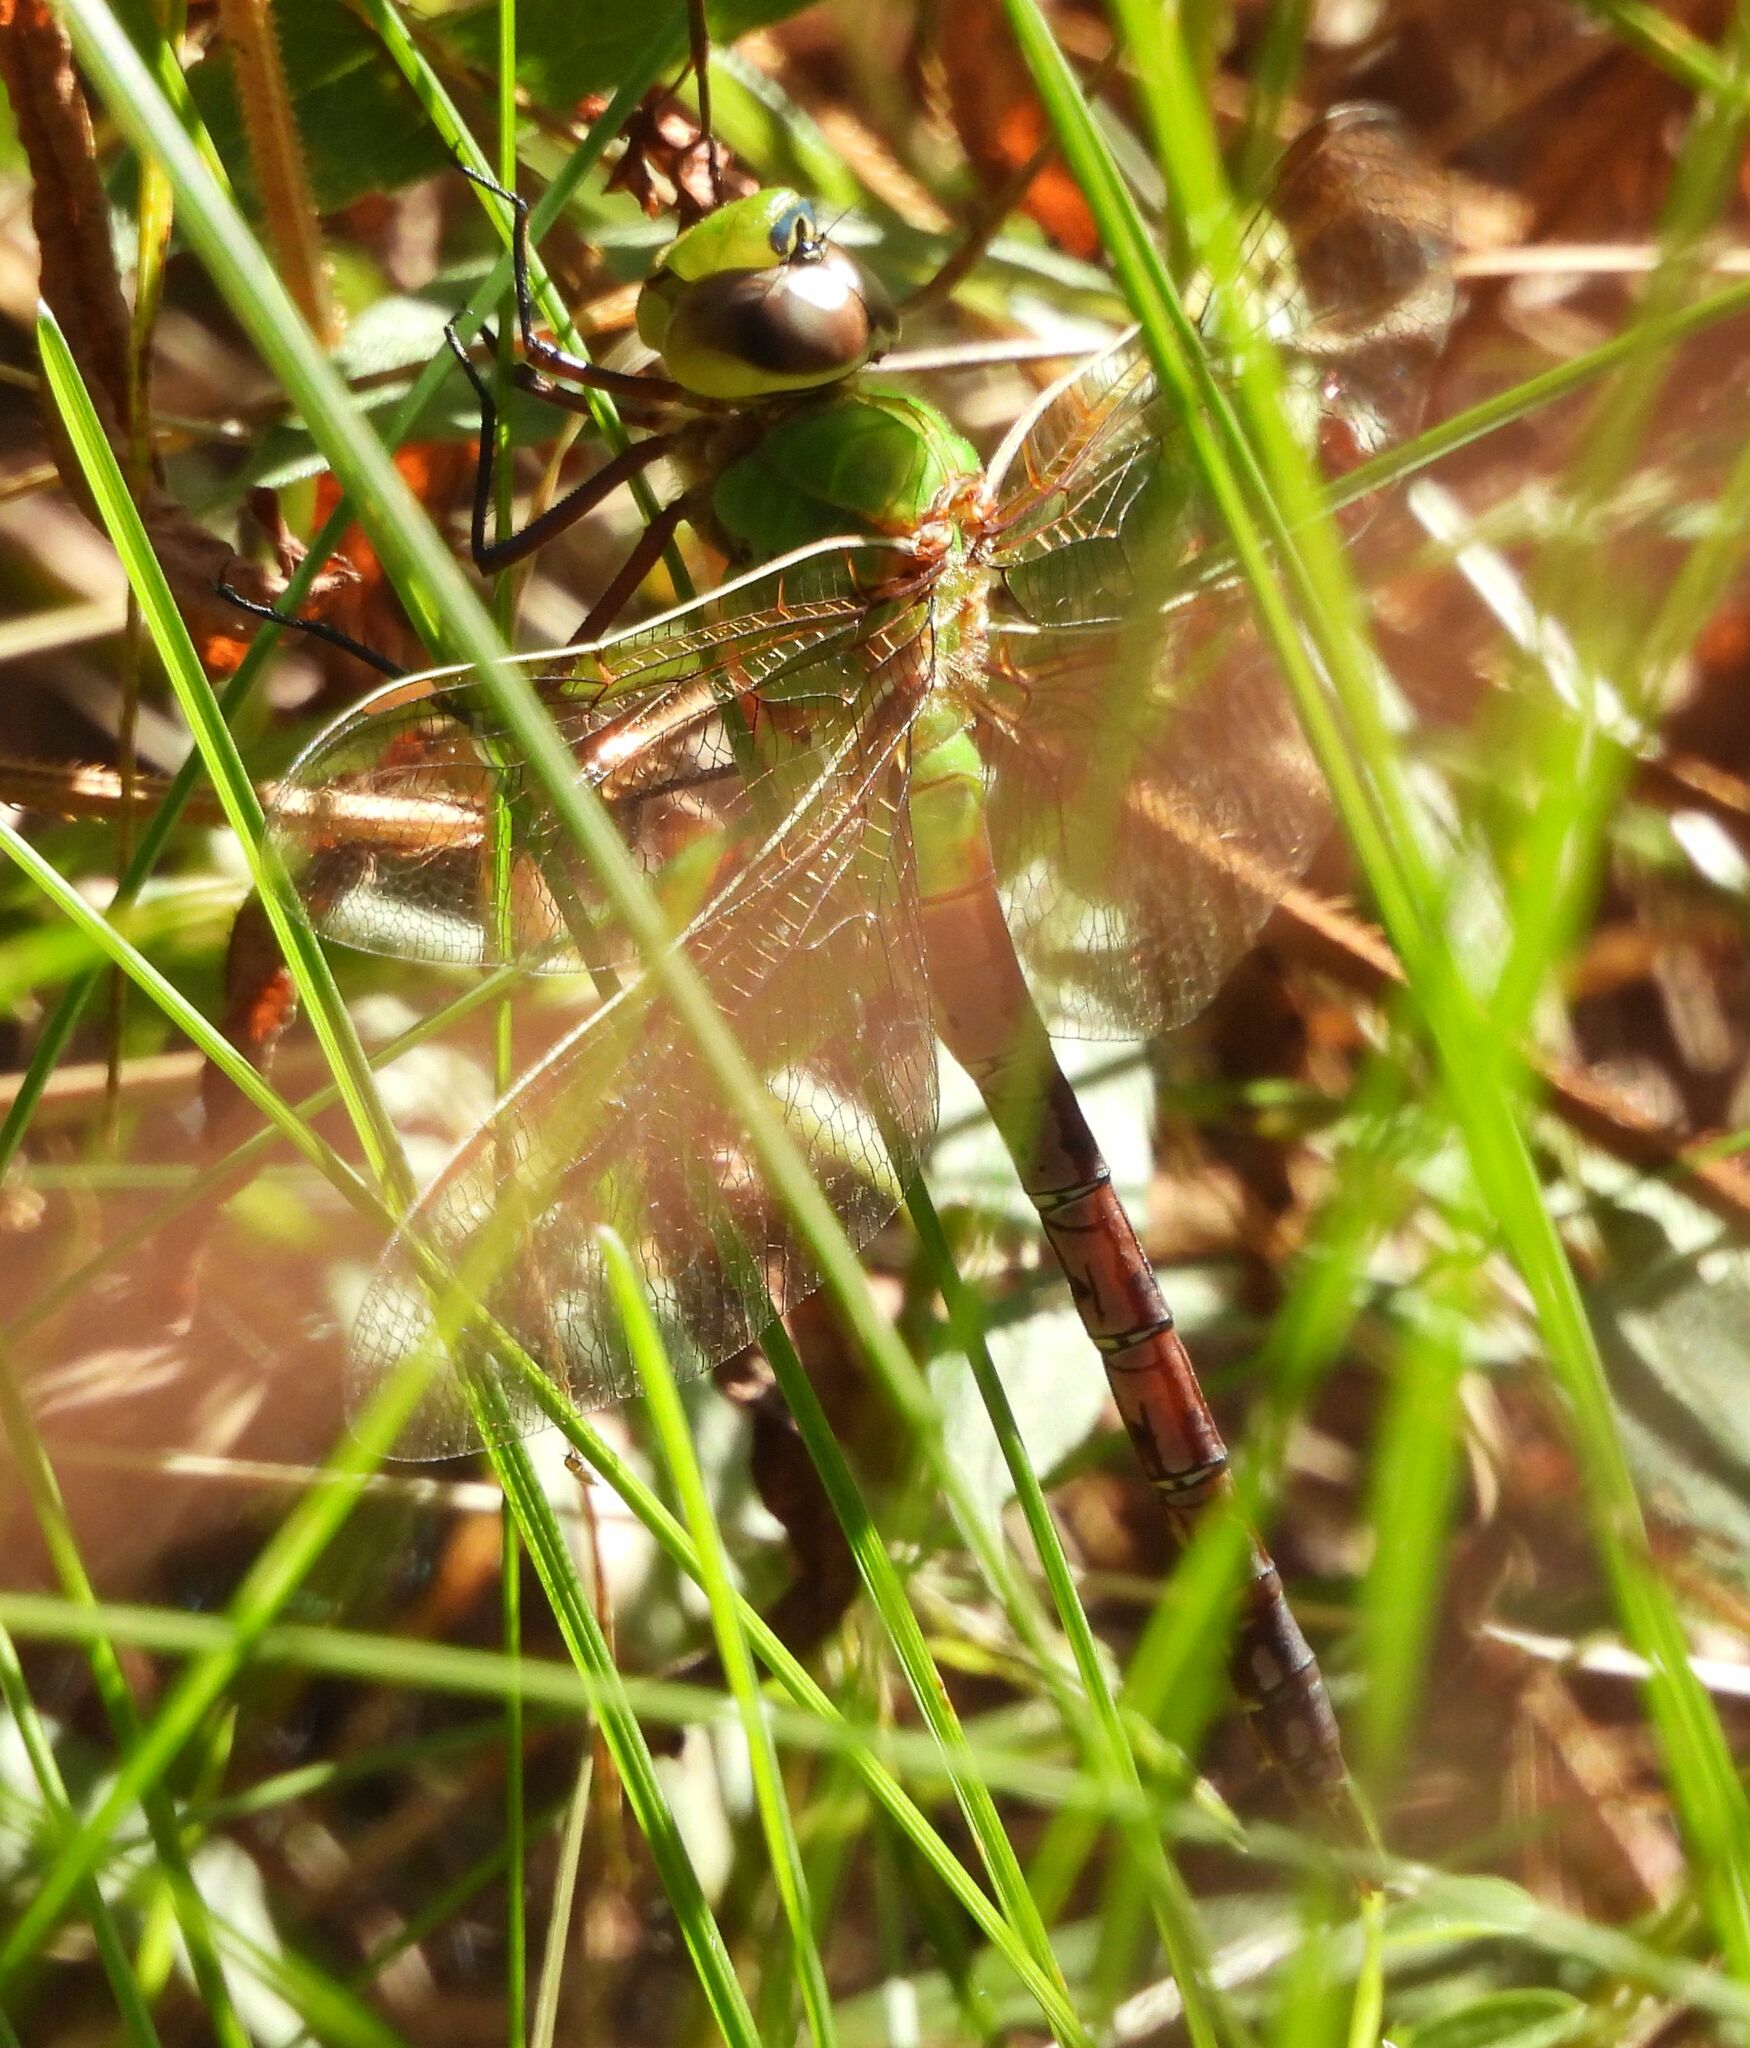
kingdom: Animalia
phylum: Arthropoda
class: Insecta
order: Odonata
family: Aeshnidae
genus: Anax
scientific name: Anax junius
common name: Common green darner
